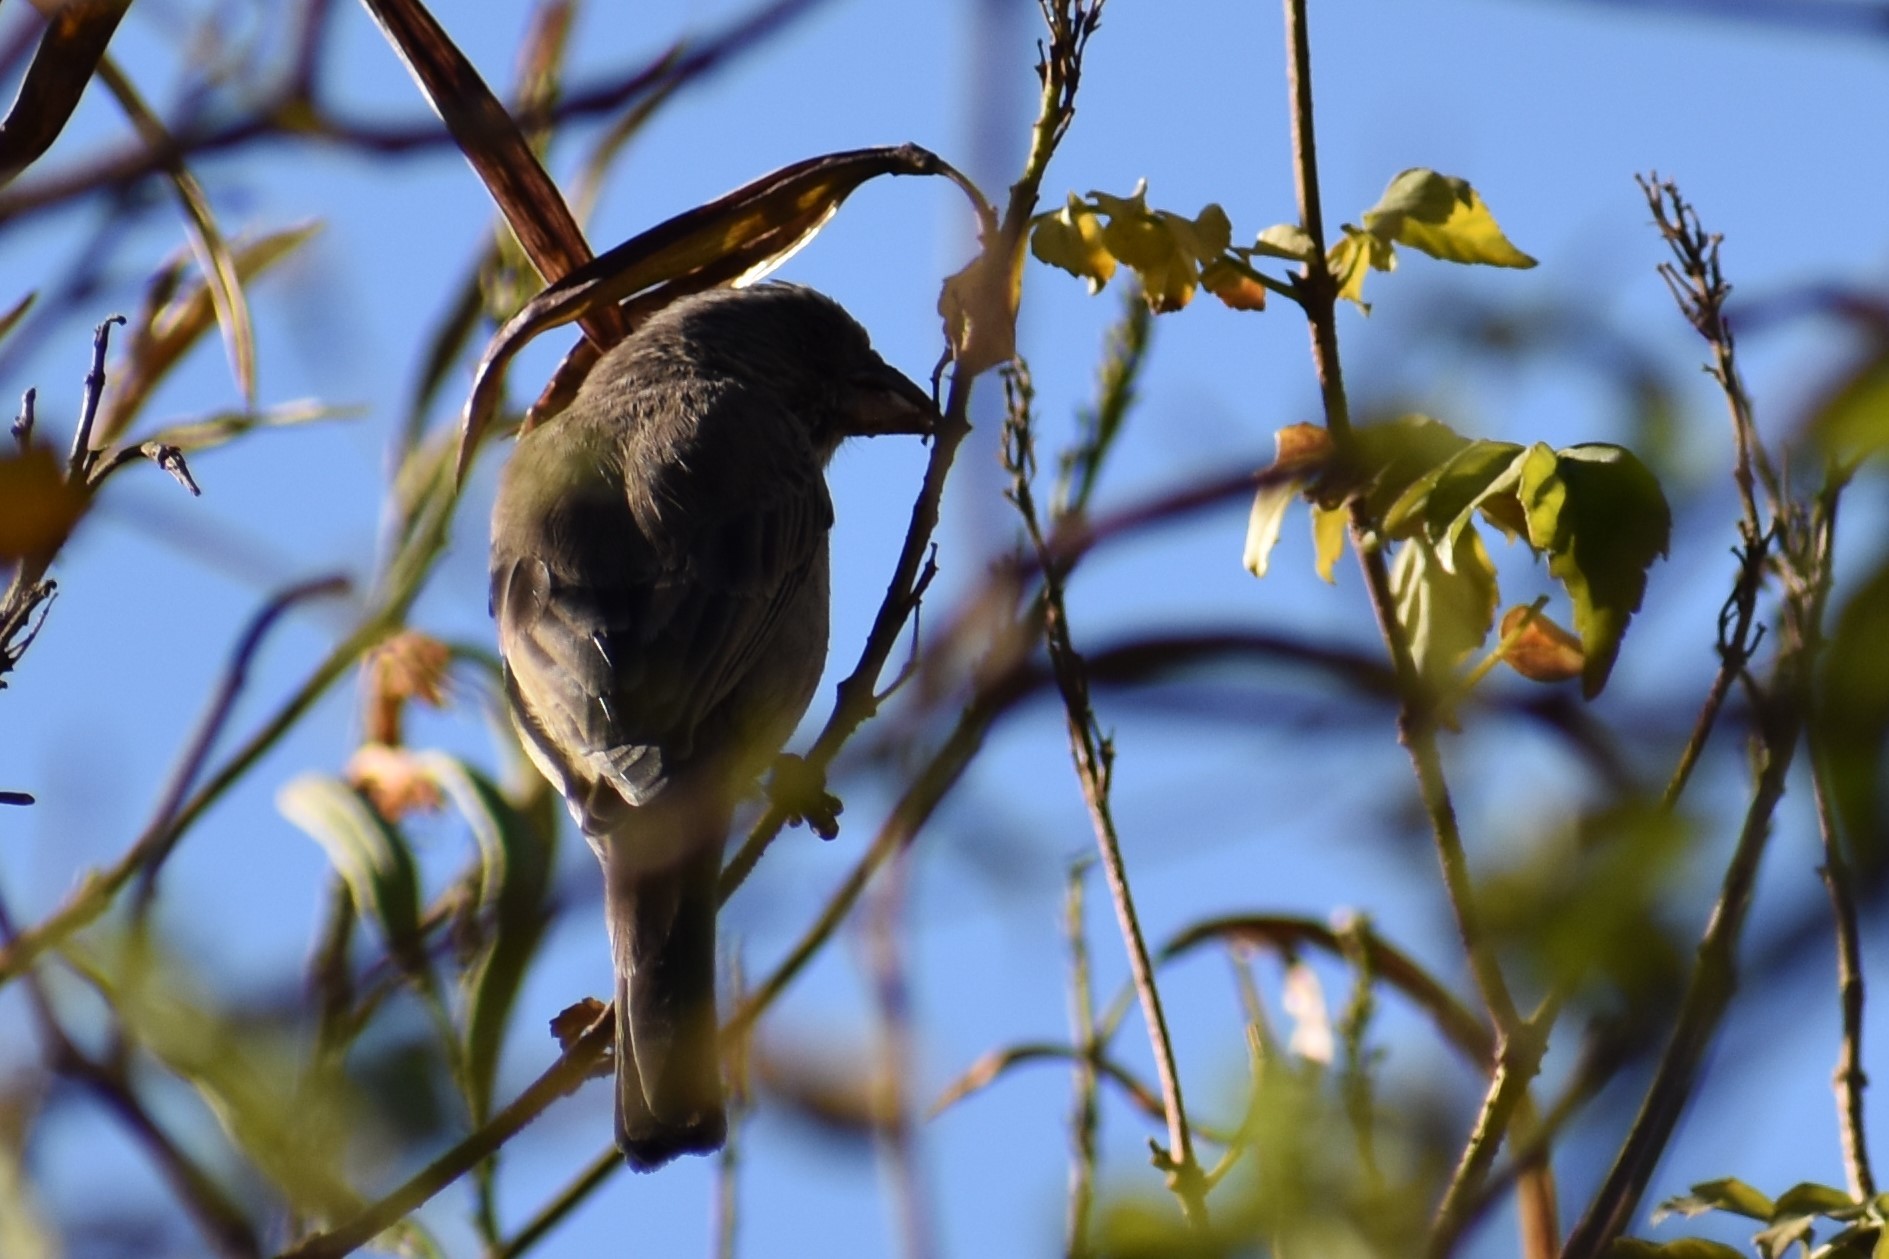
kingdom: Animalia
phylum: Chordata
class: Aves
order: Passeriformes
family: Fringillidae
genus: Crithagra
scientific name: Crithagra gularis
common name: Streaky-headed seedeater
